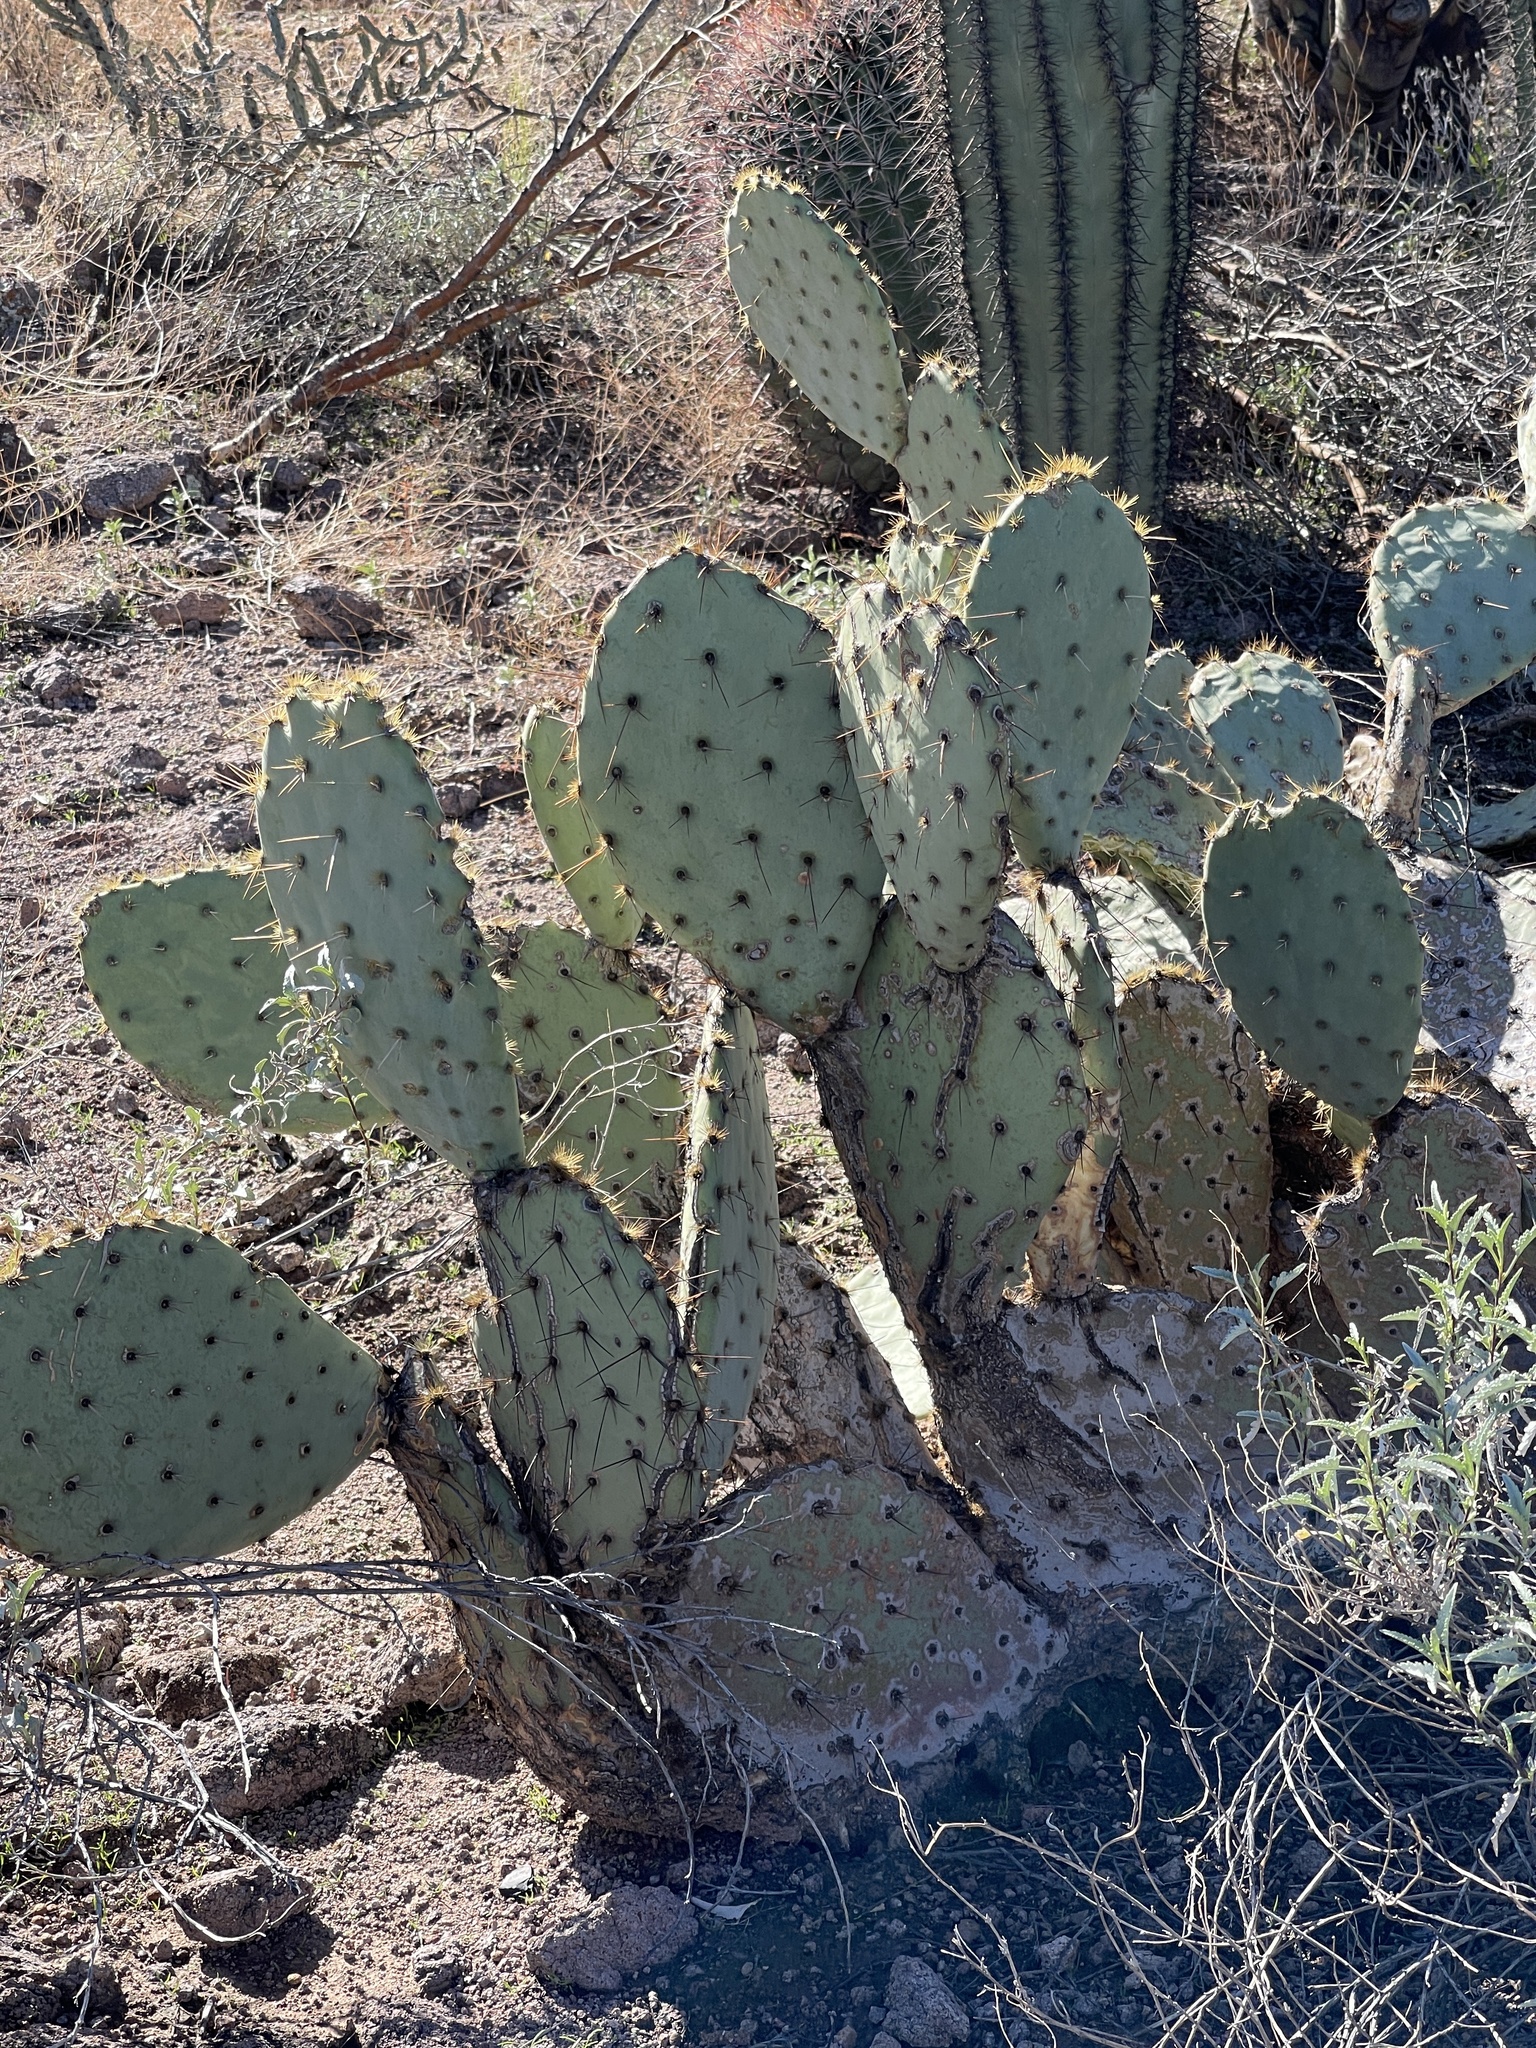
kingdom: Plantae
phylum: Tracheophyta
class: Magnoliopsida
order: Caryophyllales
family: Cactaceae
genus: Opuntia
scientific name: Opuntia engelmannii
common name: Cactus-apple
